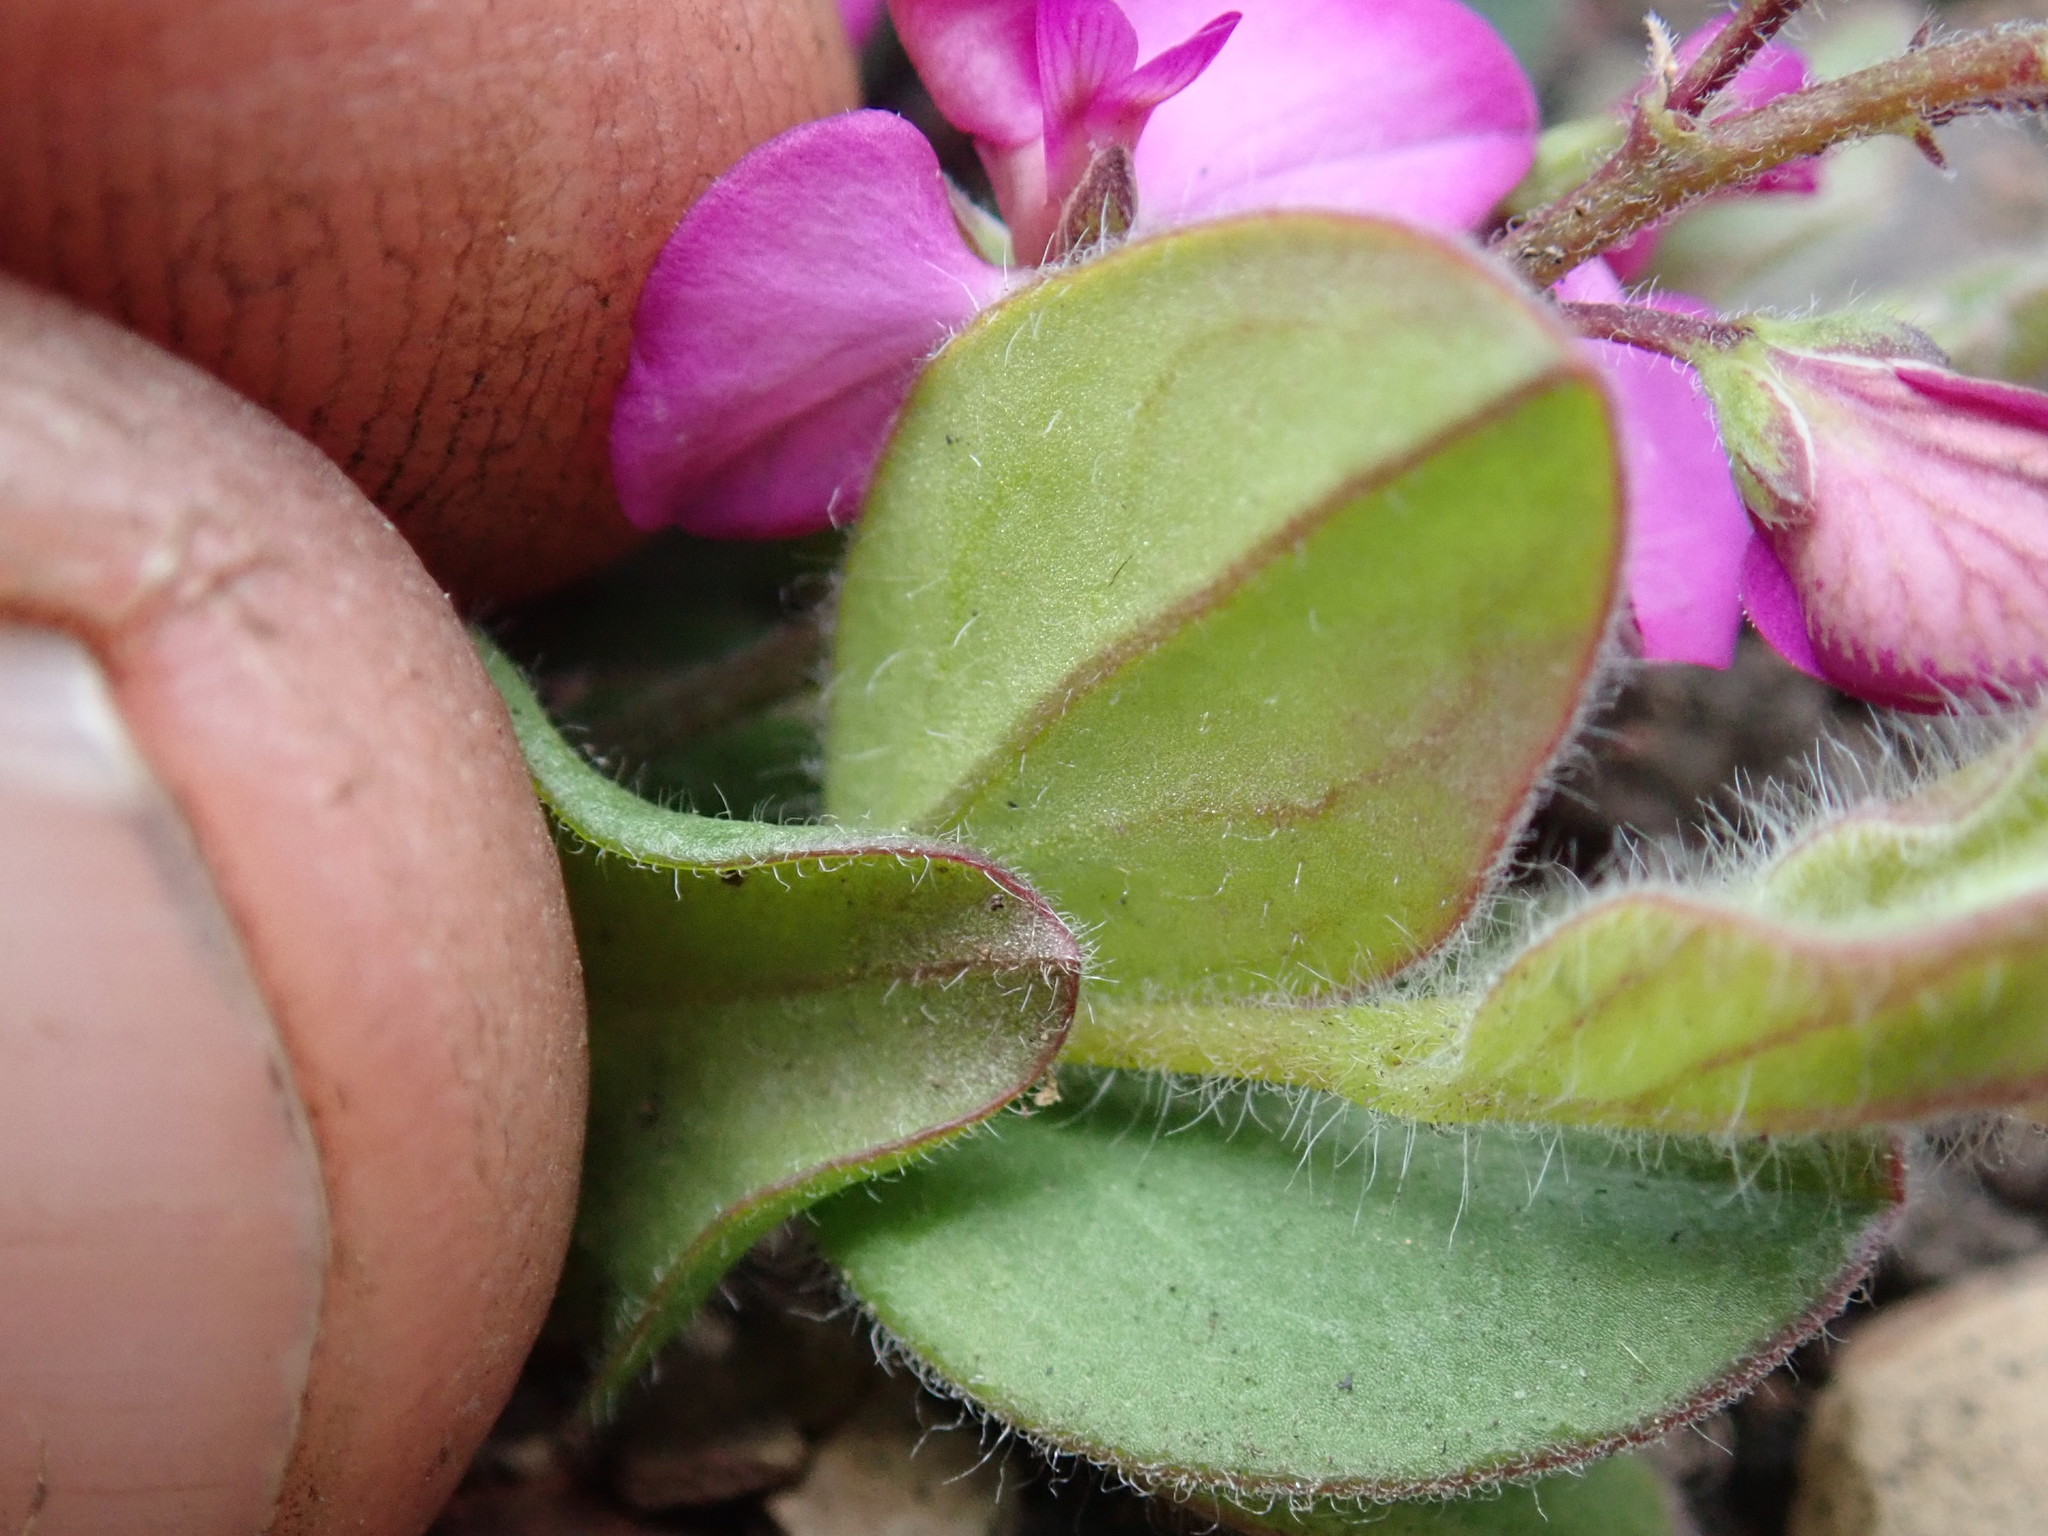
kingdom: Plantae
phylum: Tracheophyta
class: Magnoliopsida
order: Fabales
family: Polygalaceae
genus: Polygala
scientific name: Polygala ohlendorfiana
